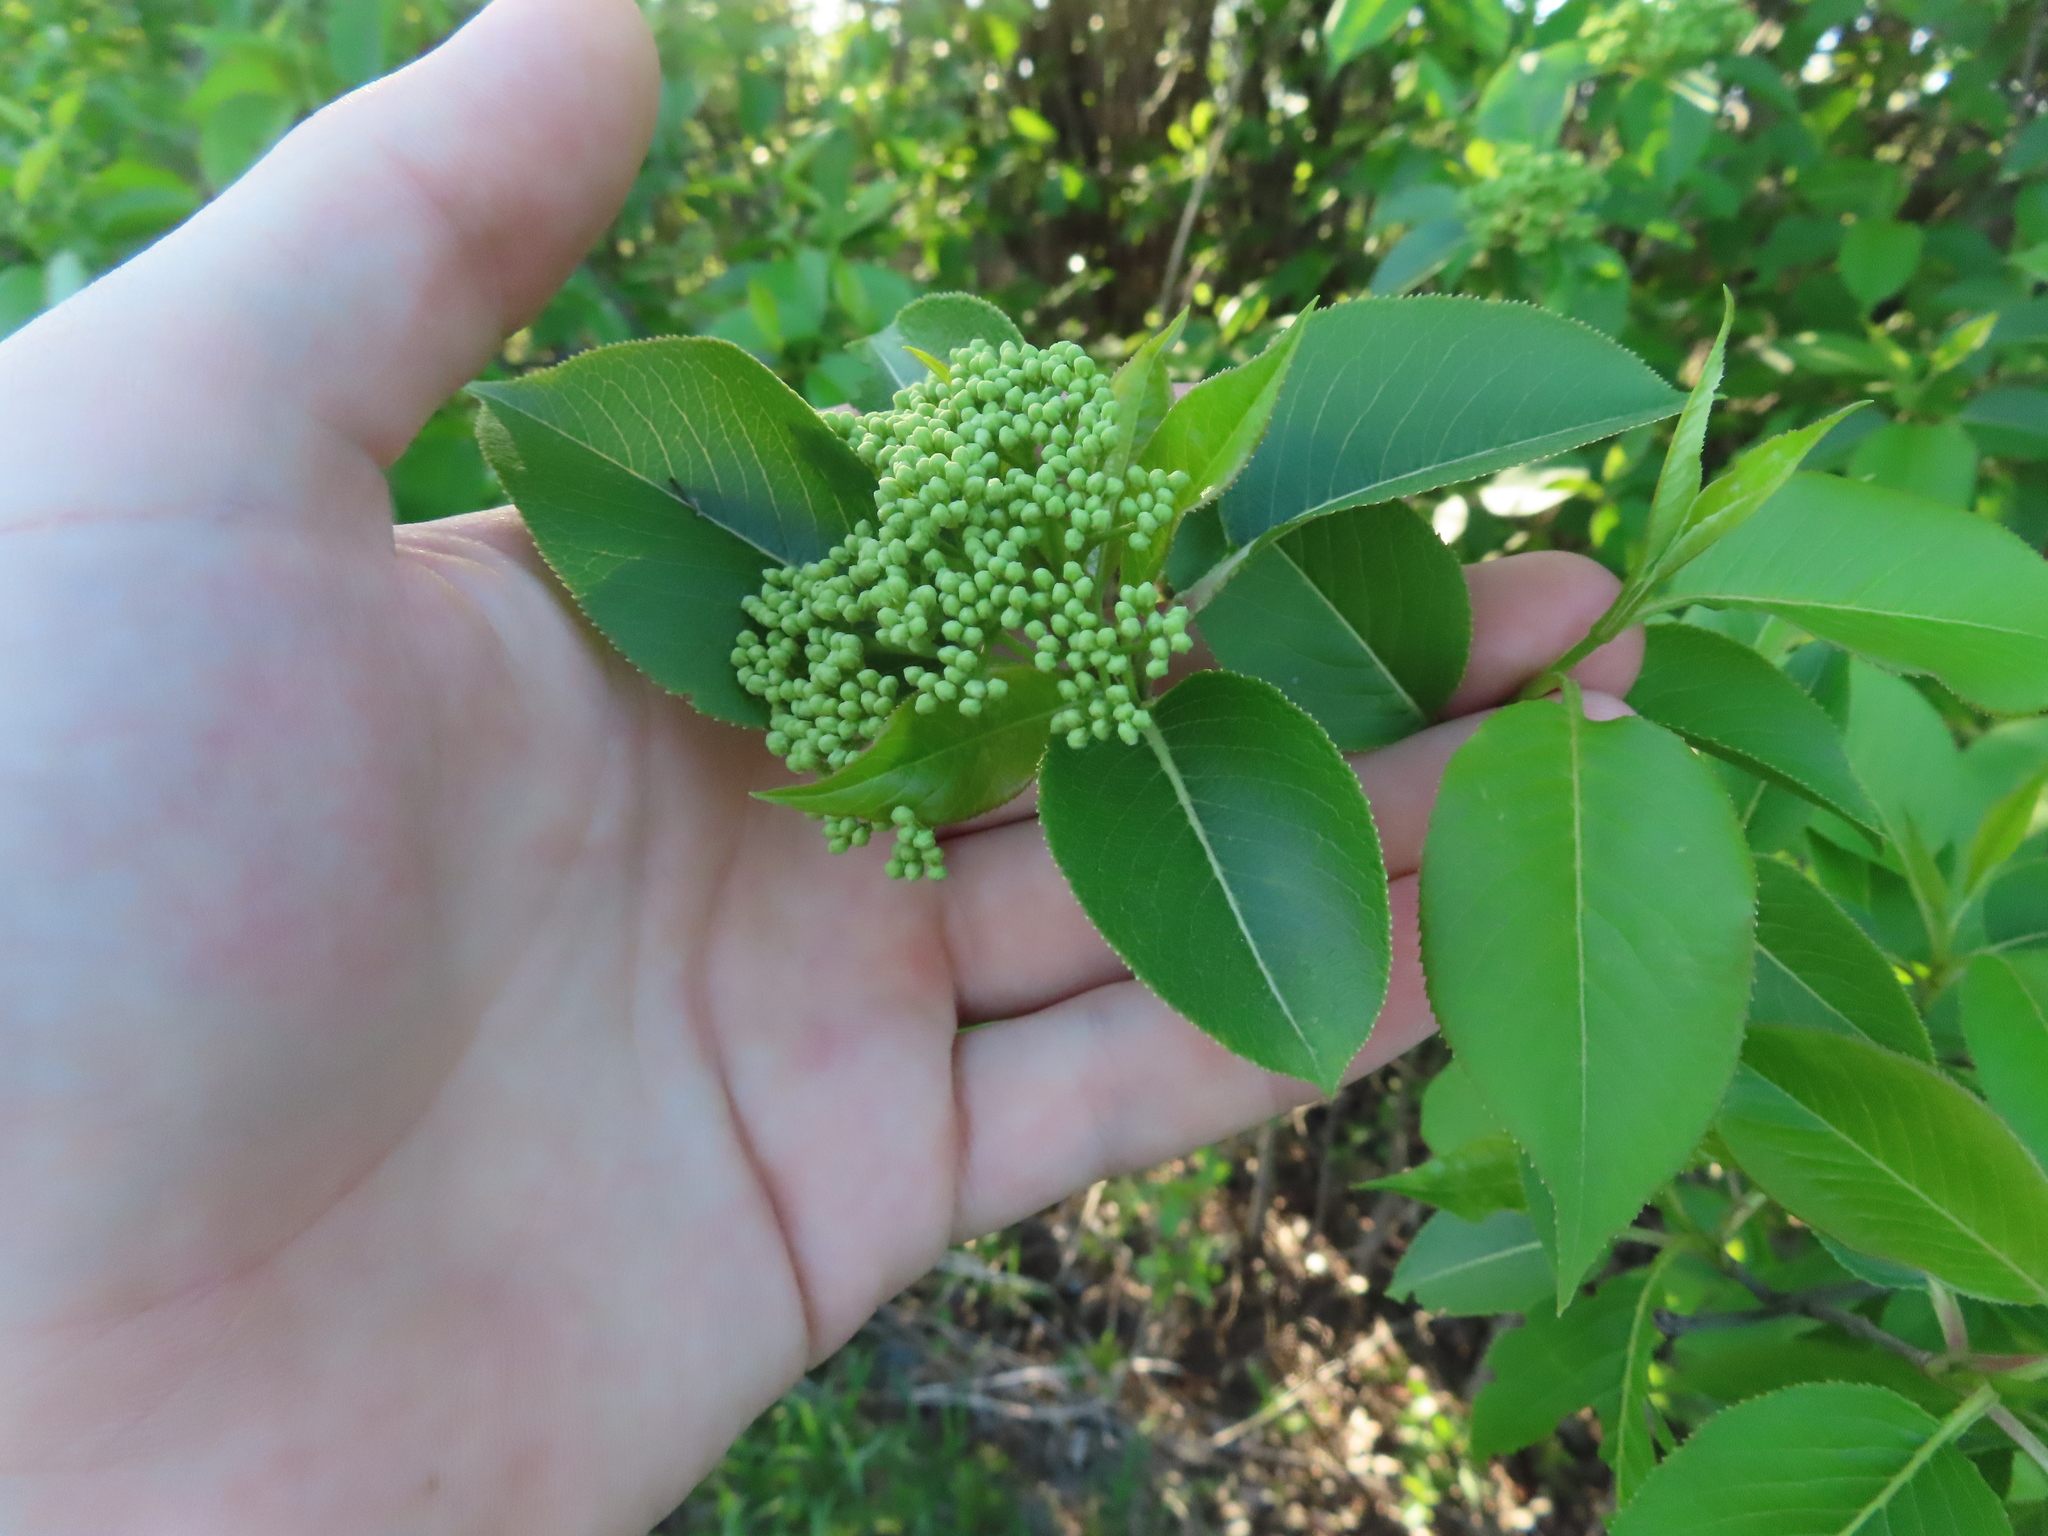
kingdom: Plantae
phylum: Tracheophyta
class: Magnoliopsida
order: Dipsacales
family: Viburnaceae
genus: Viburnum
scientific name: Viburnum lentago
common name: Black haw
